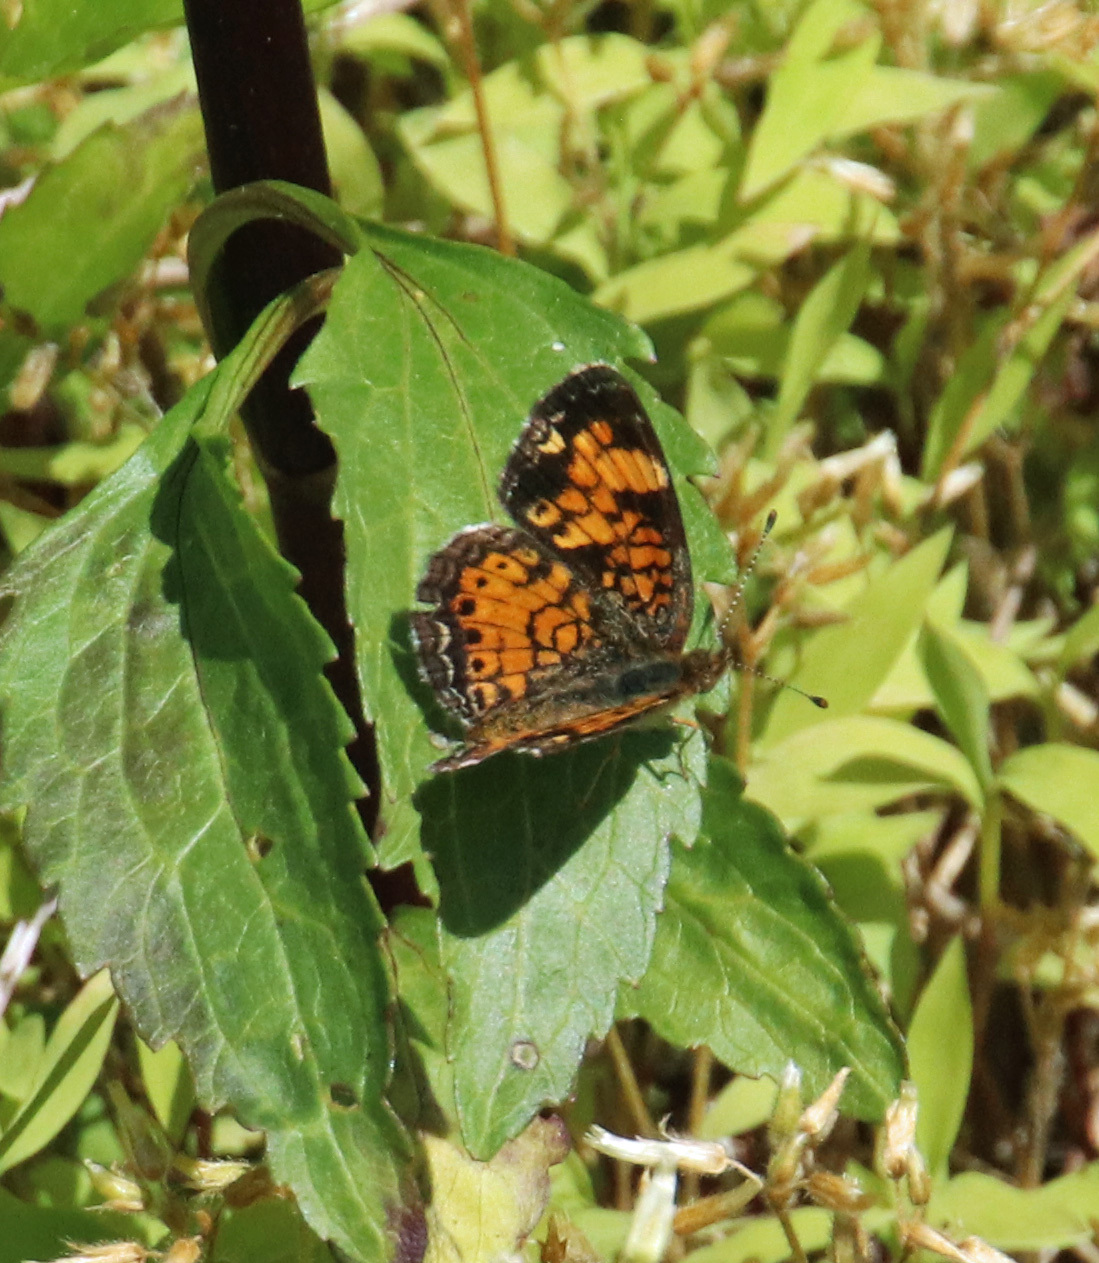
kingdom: Animalia
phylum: Arthropoda
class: Insecta
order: Lepidoptera
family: Nymphalidae
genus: Phyciodes
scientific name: Phyciodes tharos
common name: Pearl crescent
